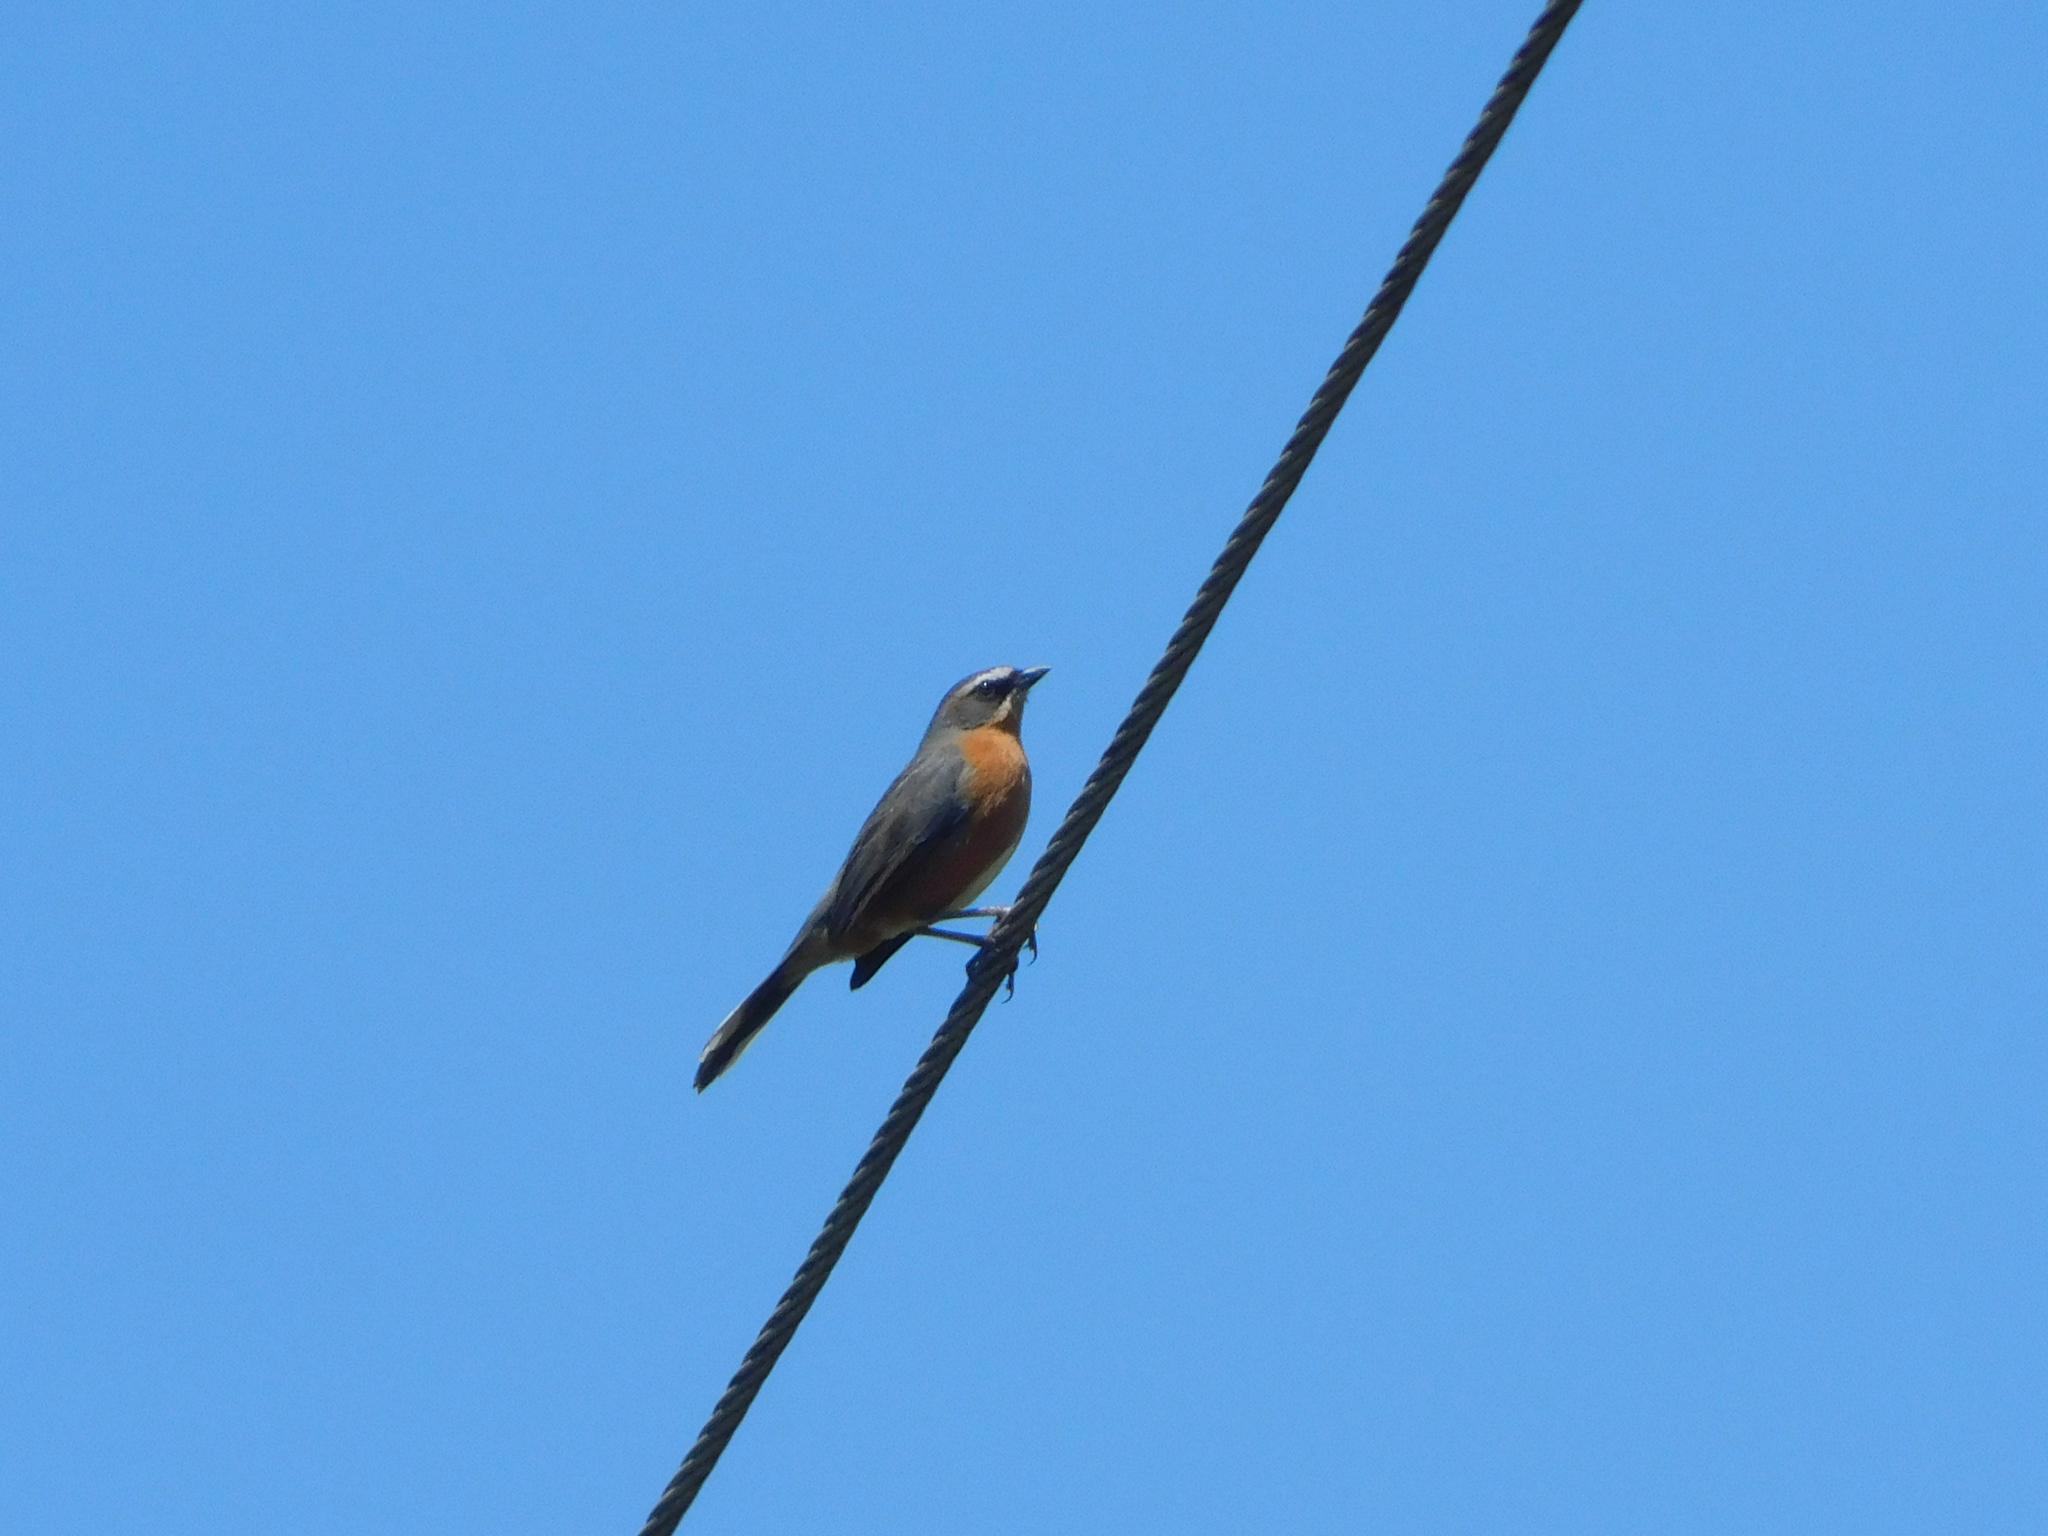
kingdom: Animalia
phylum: Chordata
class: Aves
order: Passeriformes
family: Thraupidae
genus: Poospiza
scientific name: Poospiza nigrorufa
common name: Black-and-rufous warbling finch
